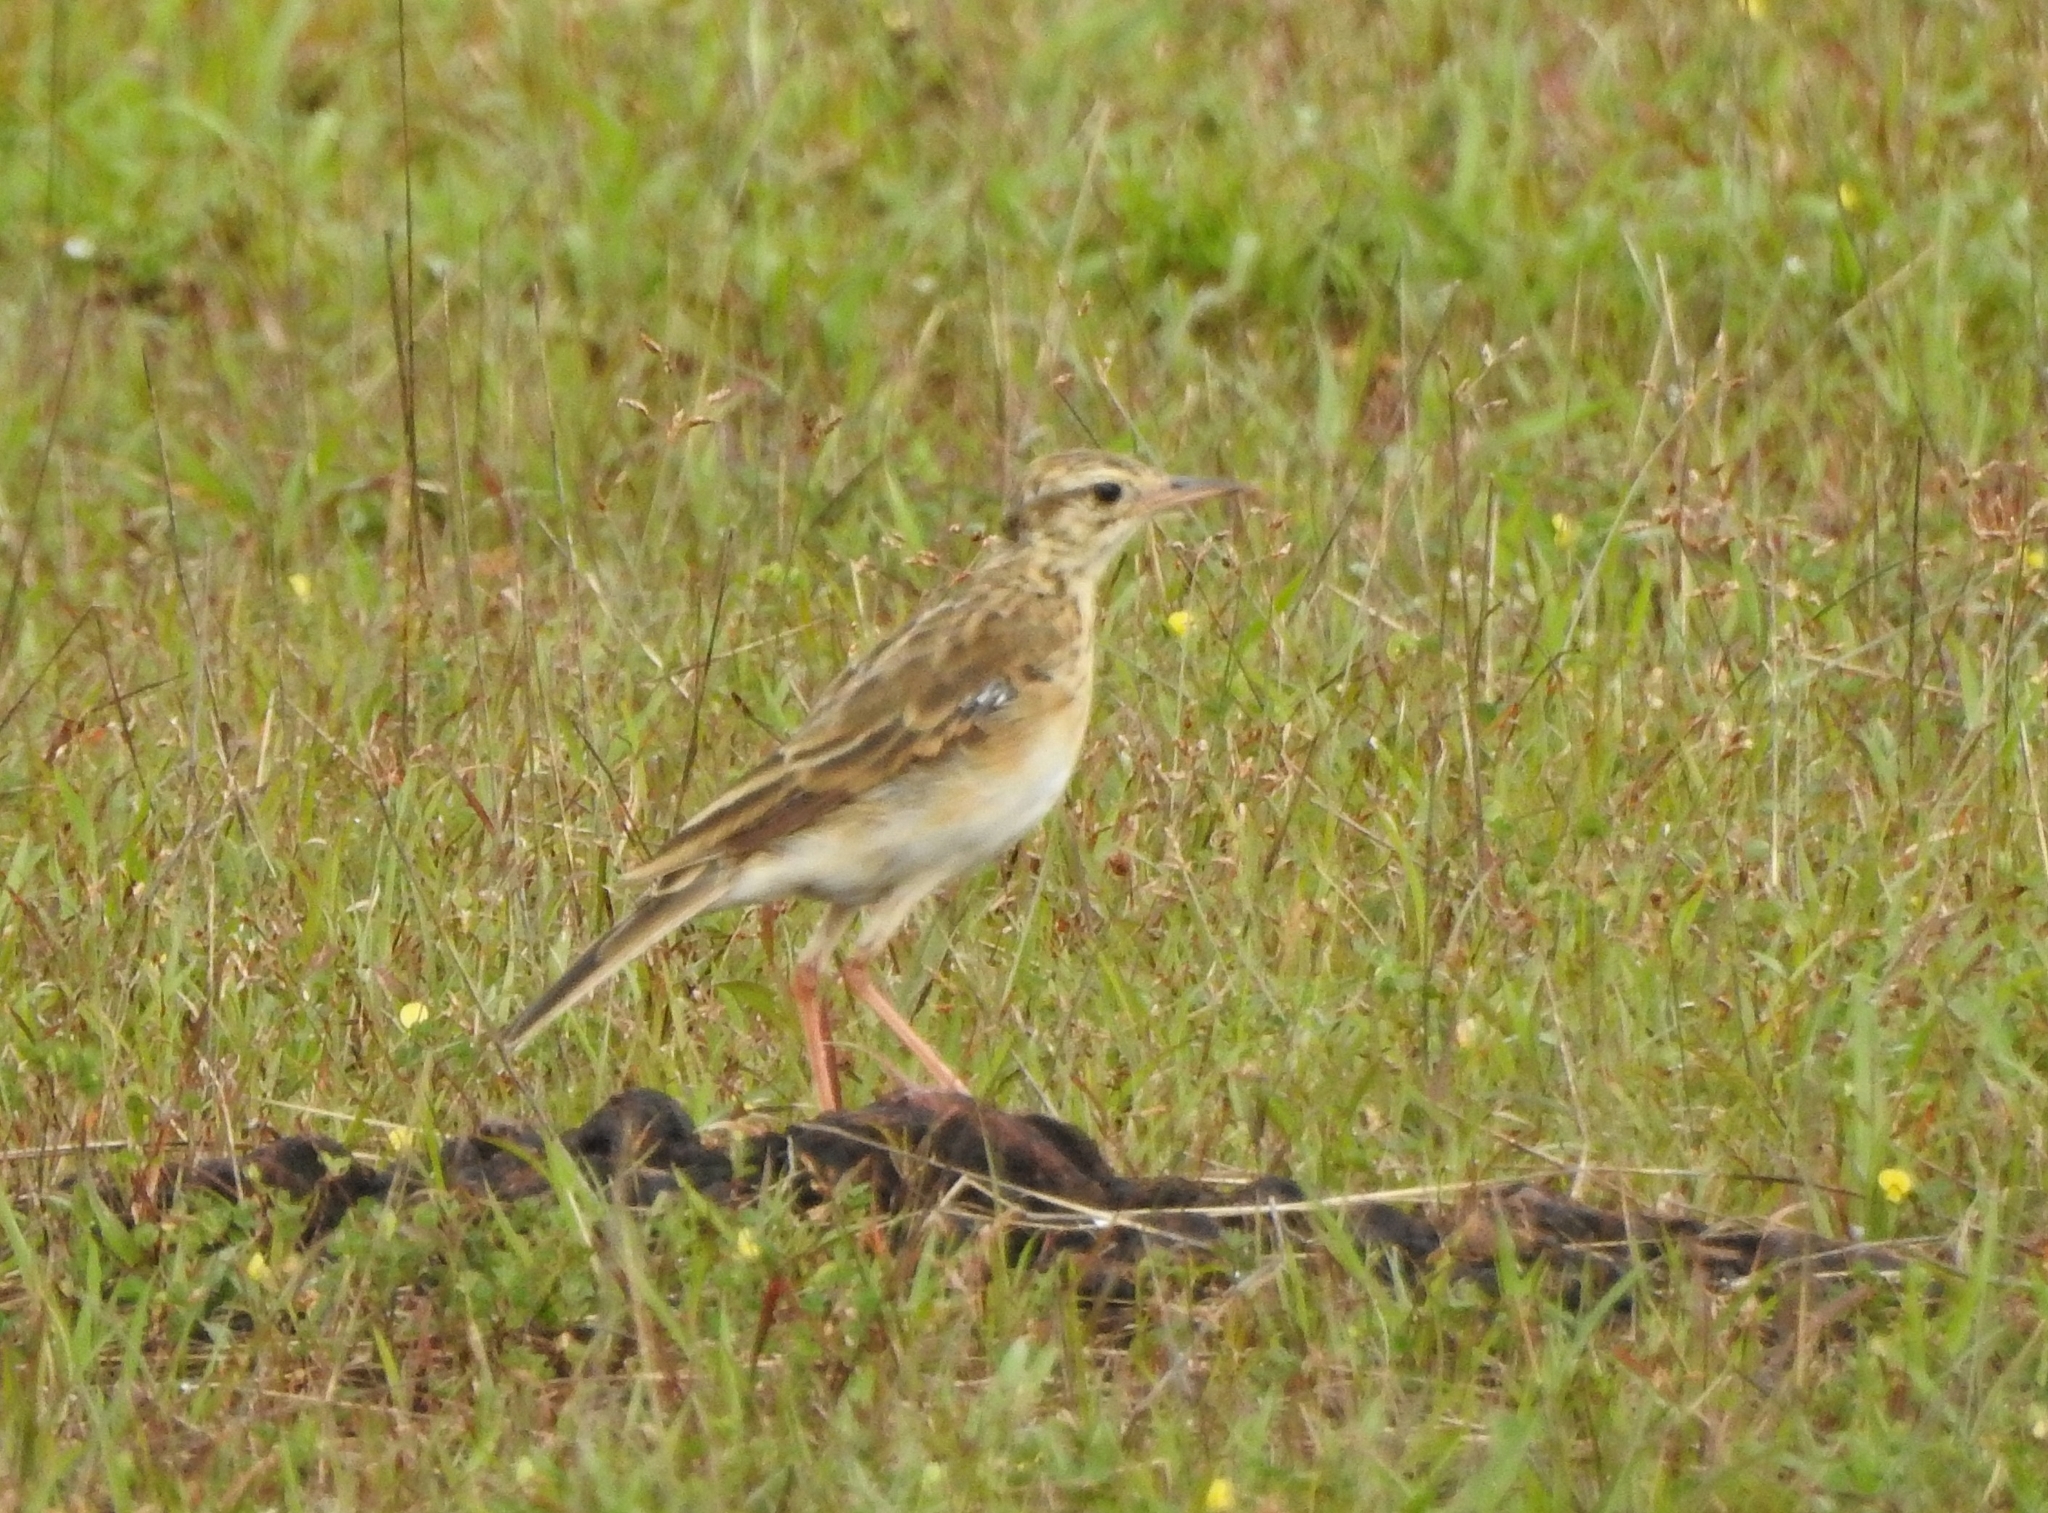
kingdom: Animalia
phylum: Chordata
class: Aves
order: Passeriformes
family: Motacillidae
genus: Anthus
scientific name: Anthus rufulus
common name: Paddyfield pipit
